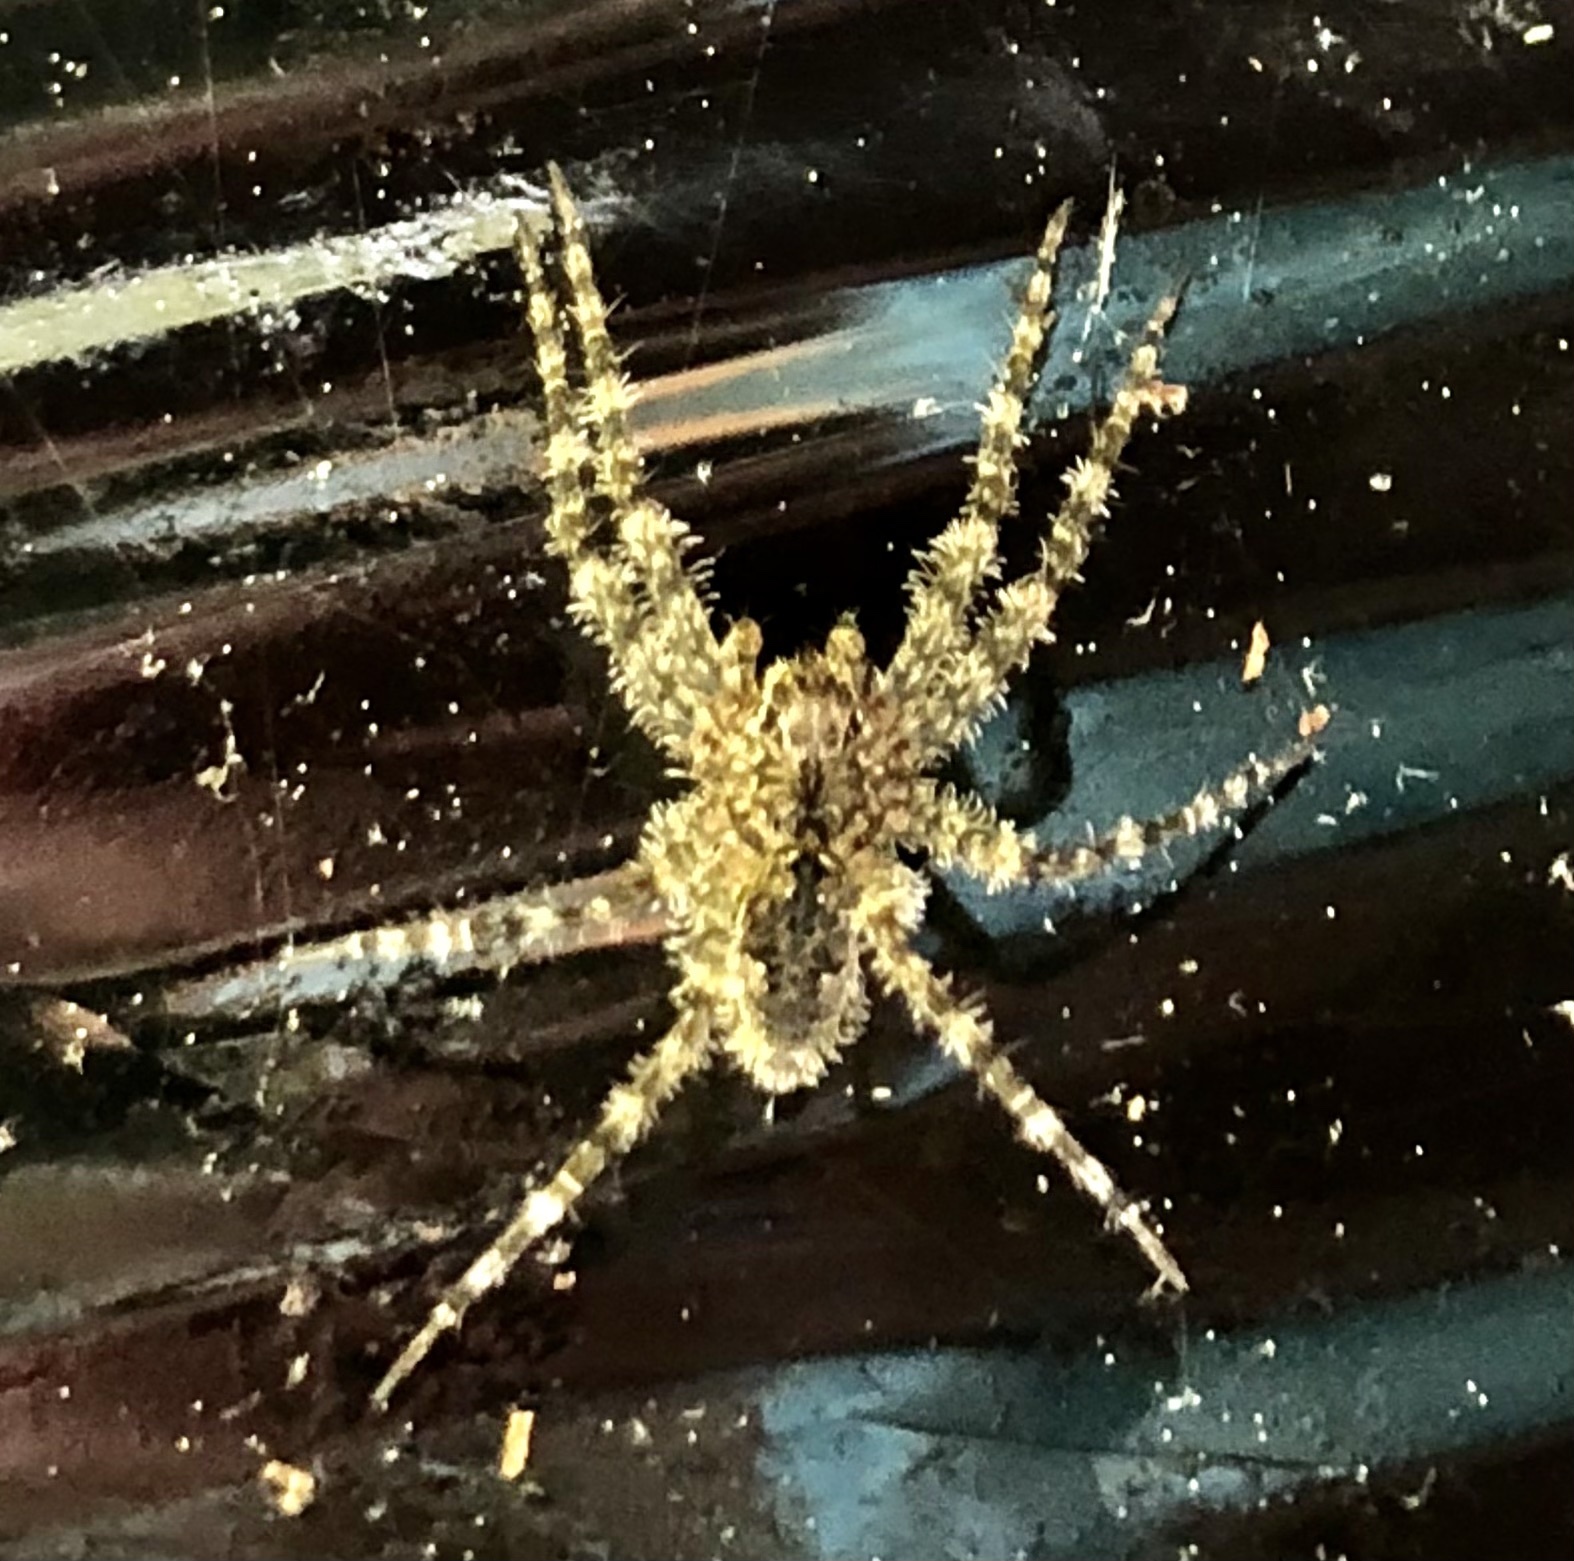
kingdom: Animalia
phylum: Arthropoda
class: Arachnida
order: Araneae
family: Pisauridae
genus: Dolomedes
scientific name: Dolomedes albineus
